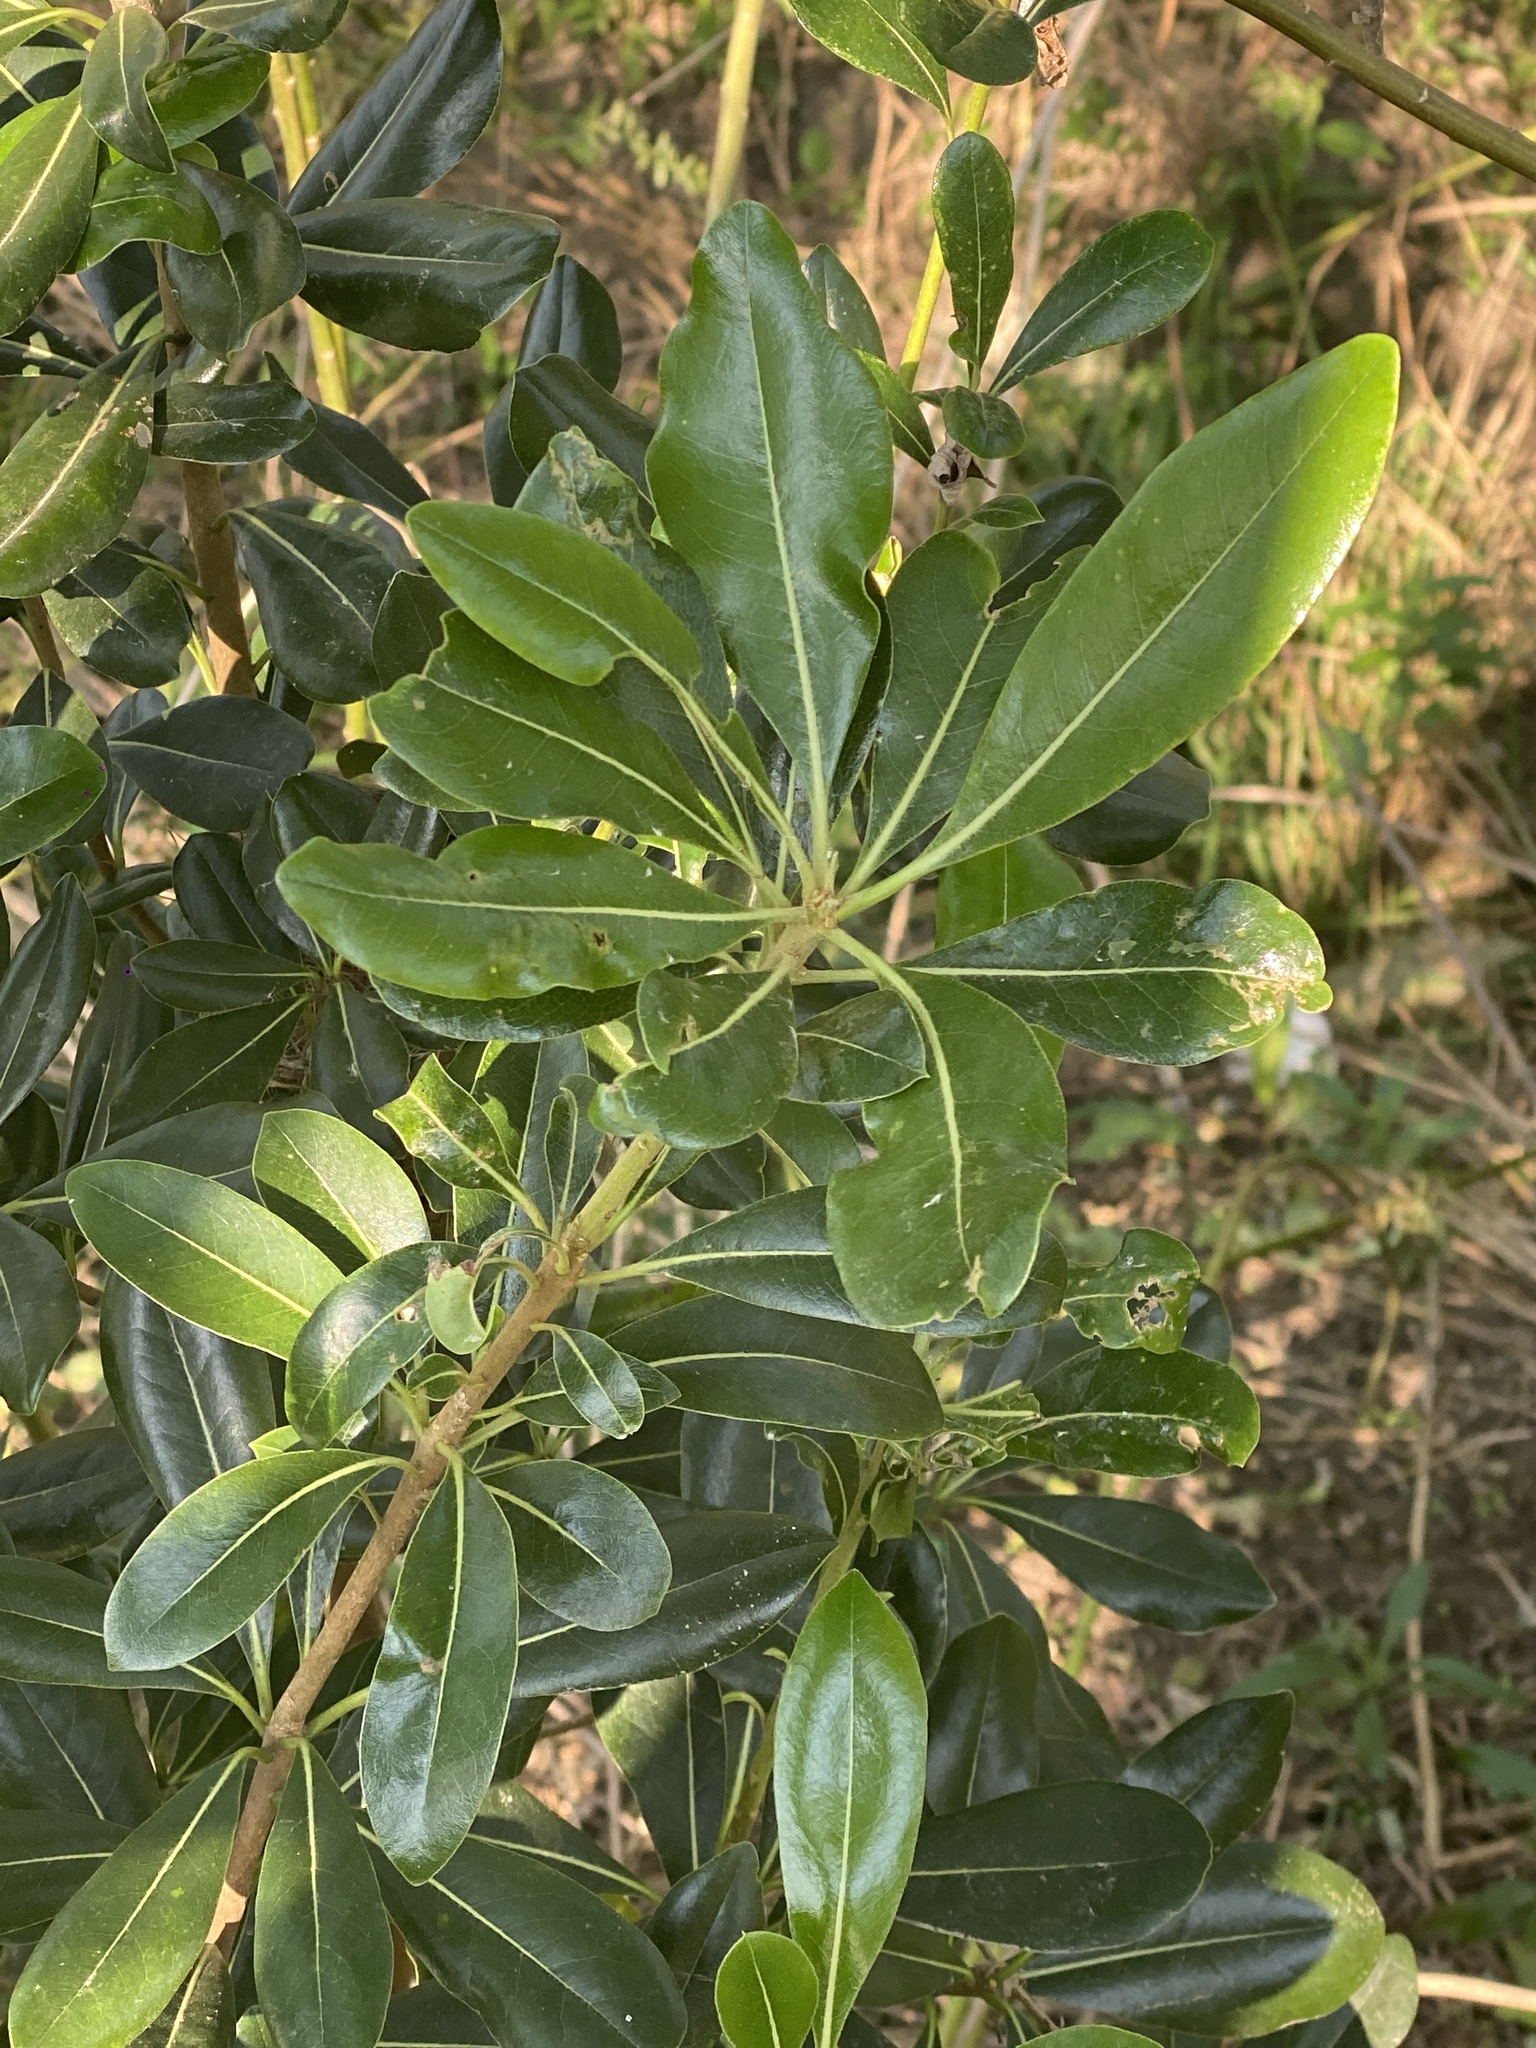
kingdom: Plantae
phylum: Tracheophyta
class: Magnoliopsida
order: Apiales
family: Pittosporaceae
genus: Pittosporum
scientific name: Pittosporum tobira
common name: Japanese cheesewood
